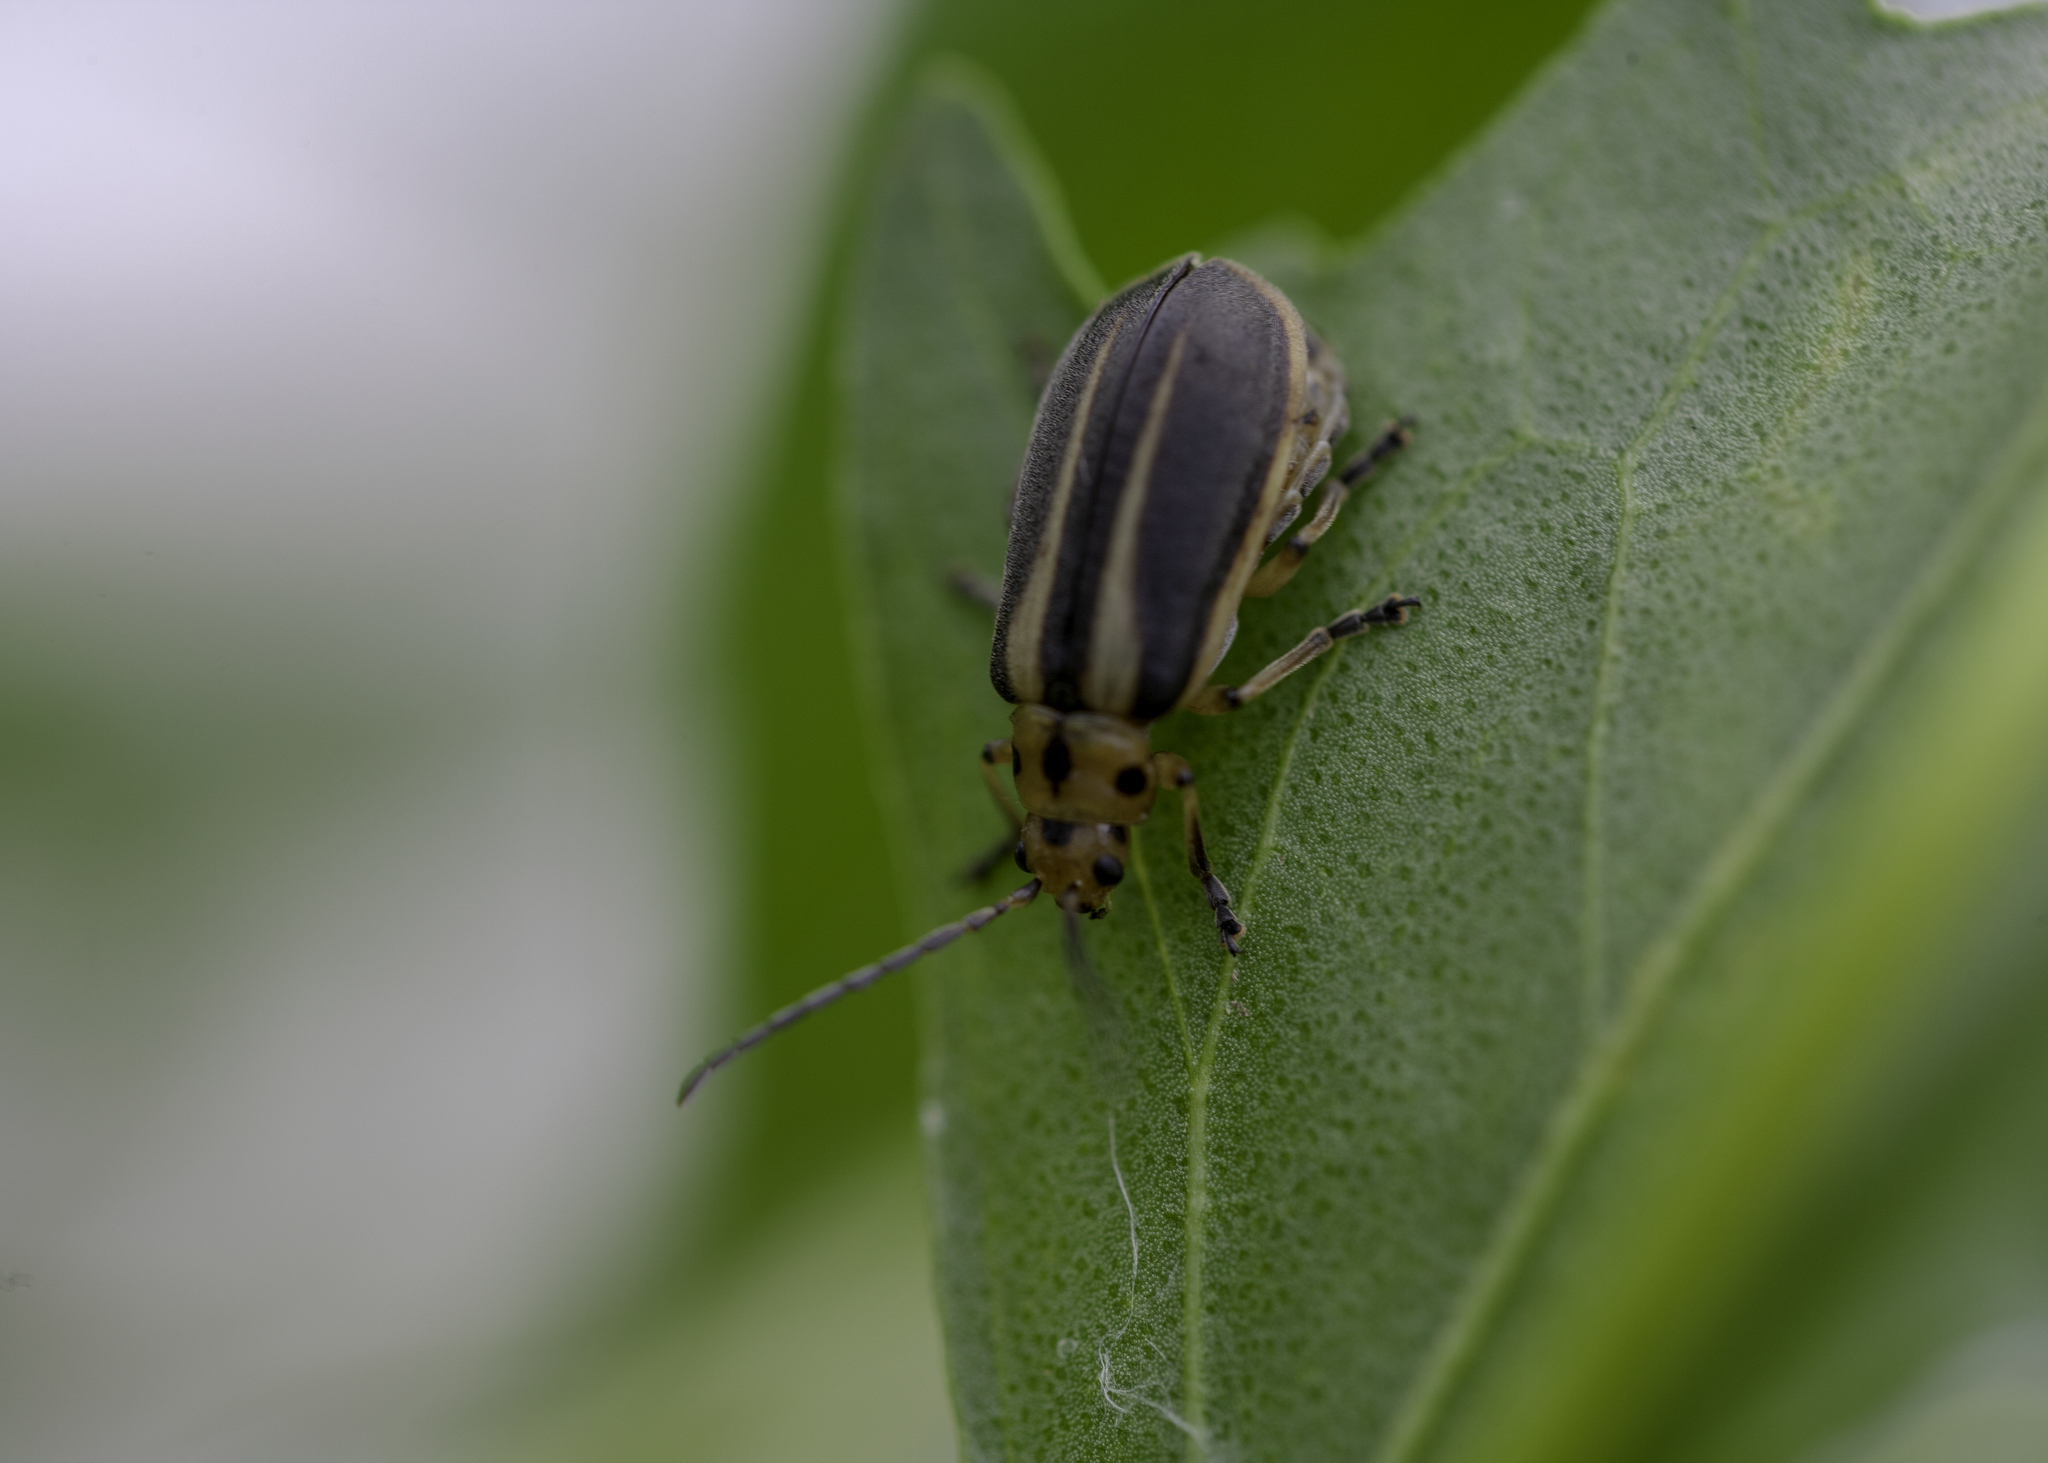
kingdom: Animalia
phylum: Arthropoda
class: Insecta
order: Coleoptera
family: Chrysomelidae
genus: Trirhabda
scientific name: Trirhabda bacharidis
